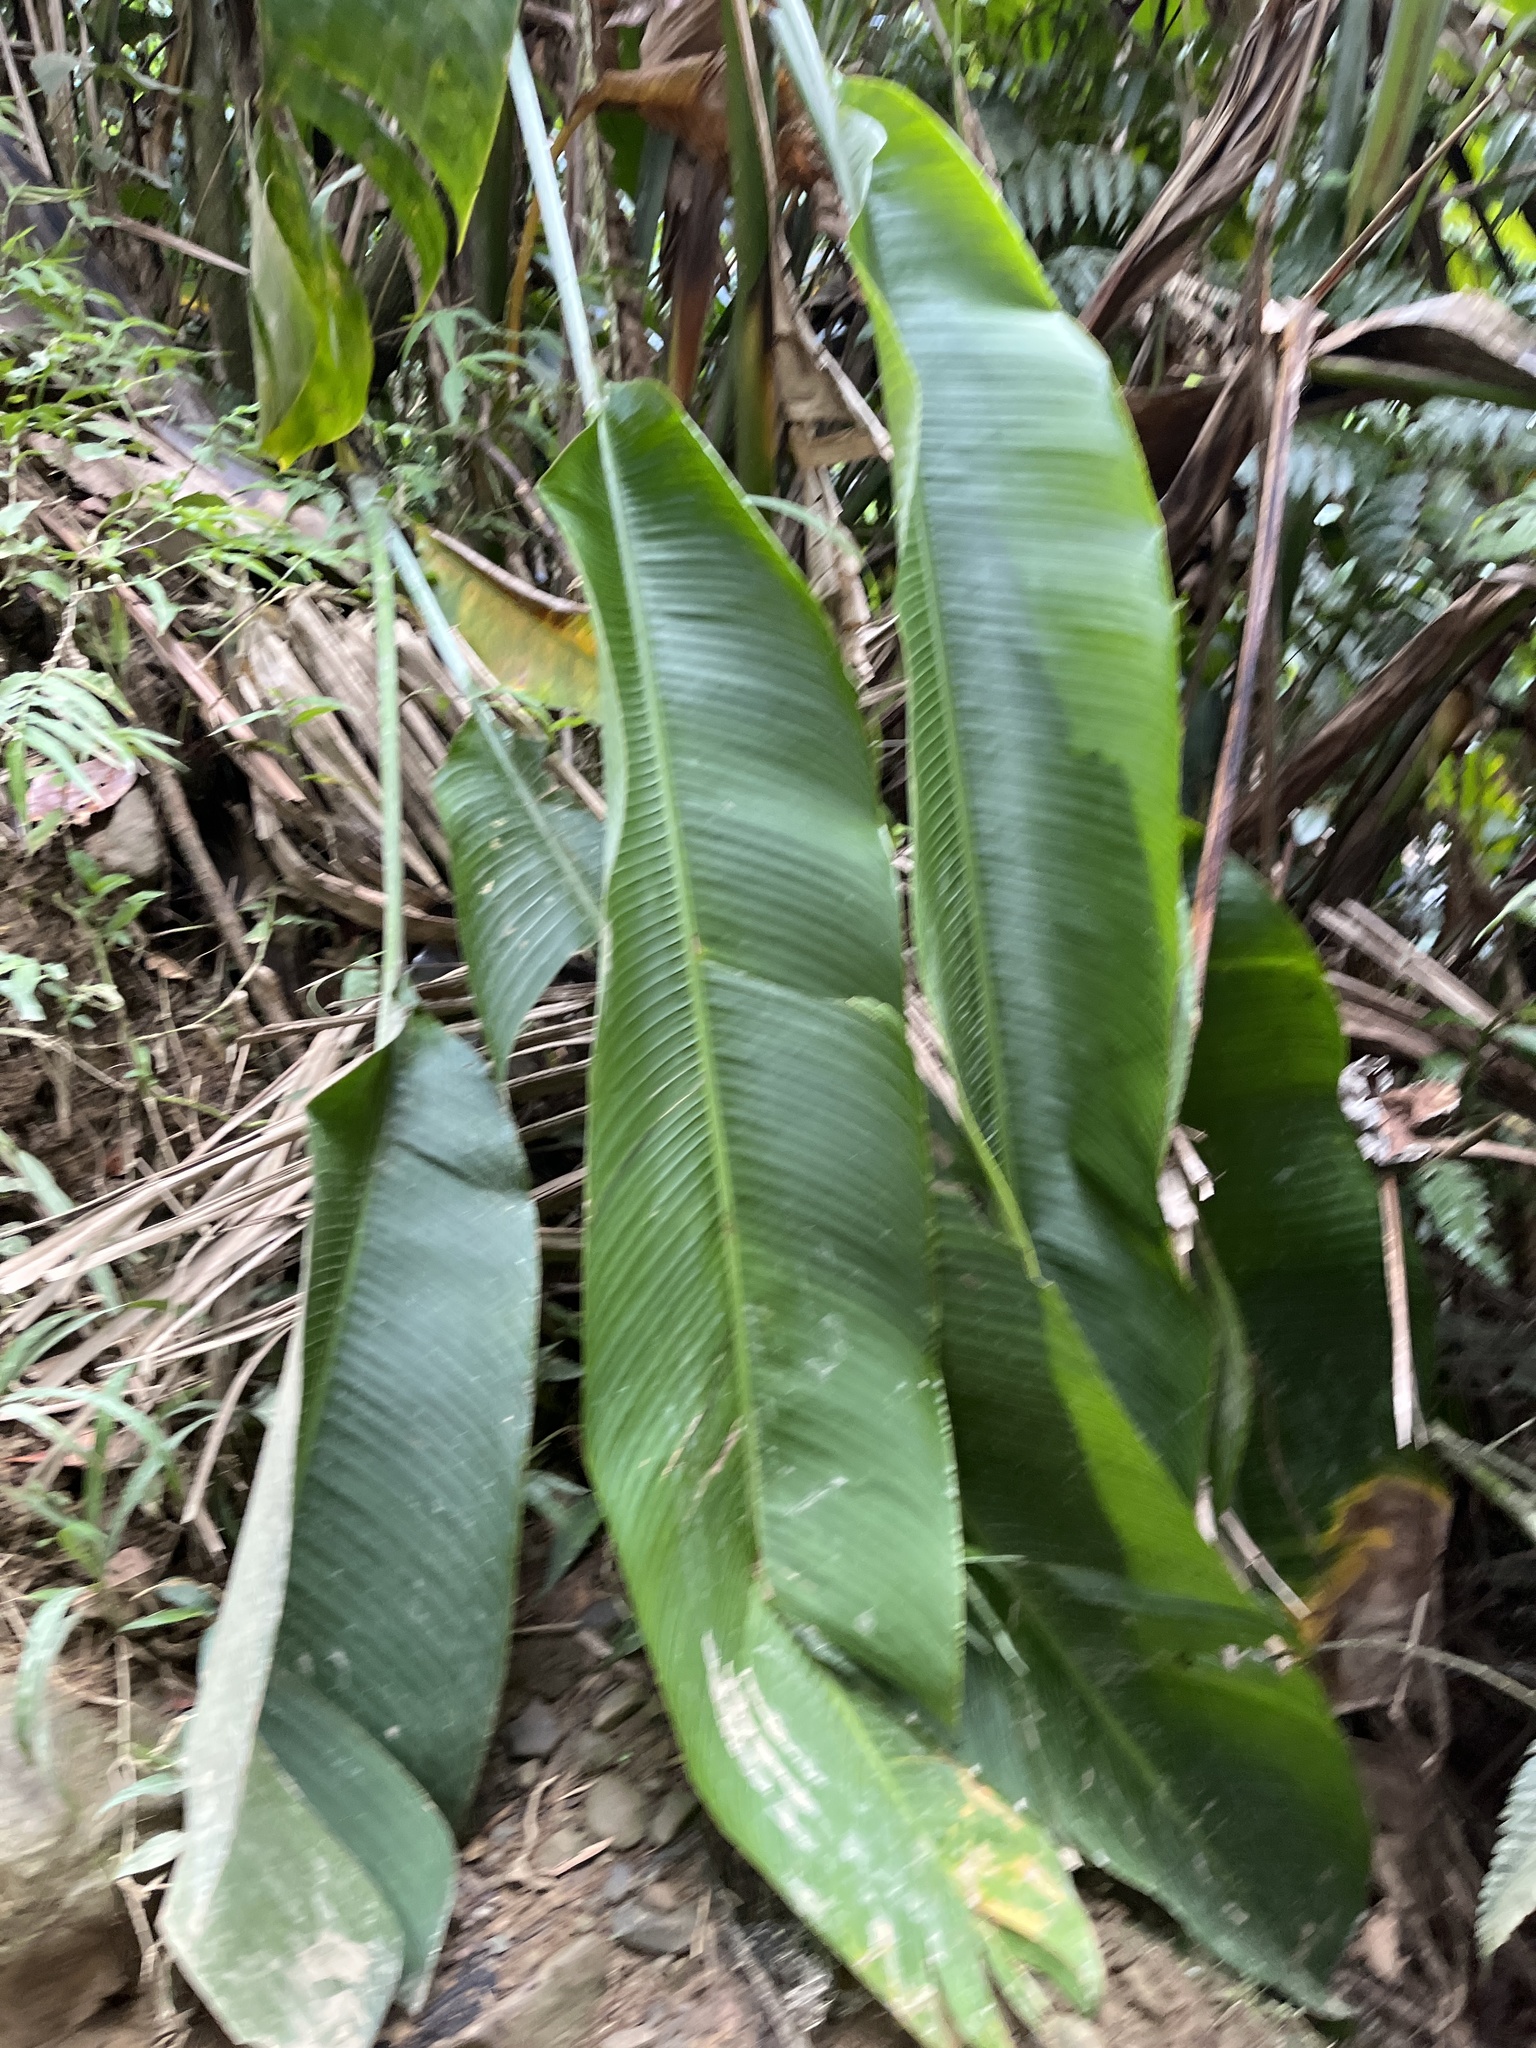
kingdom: Plantae
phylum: Tracheophyta
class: Liliopsida
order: Zingiberales
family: Heliconiaceae
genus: Heliconia
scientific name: Heliconia caribaea
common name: Wild plantain
